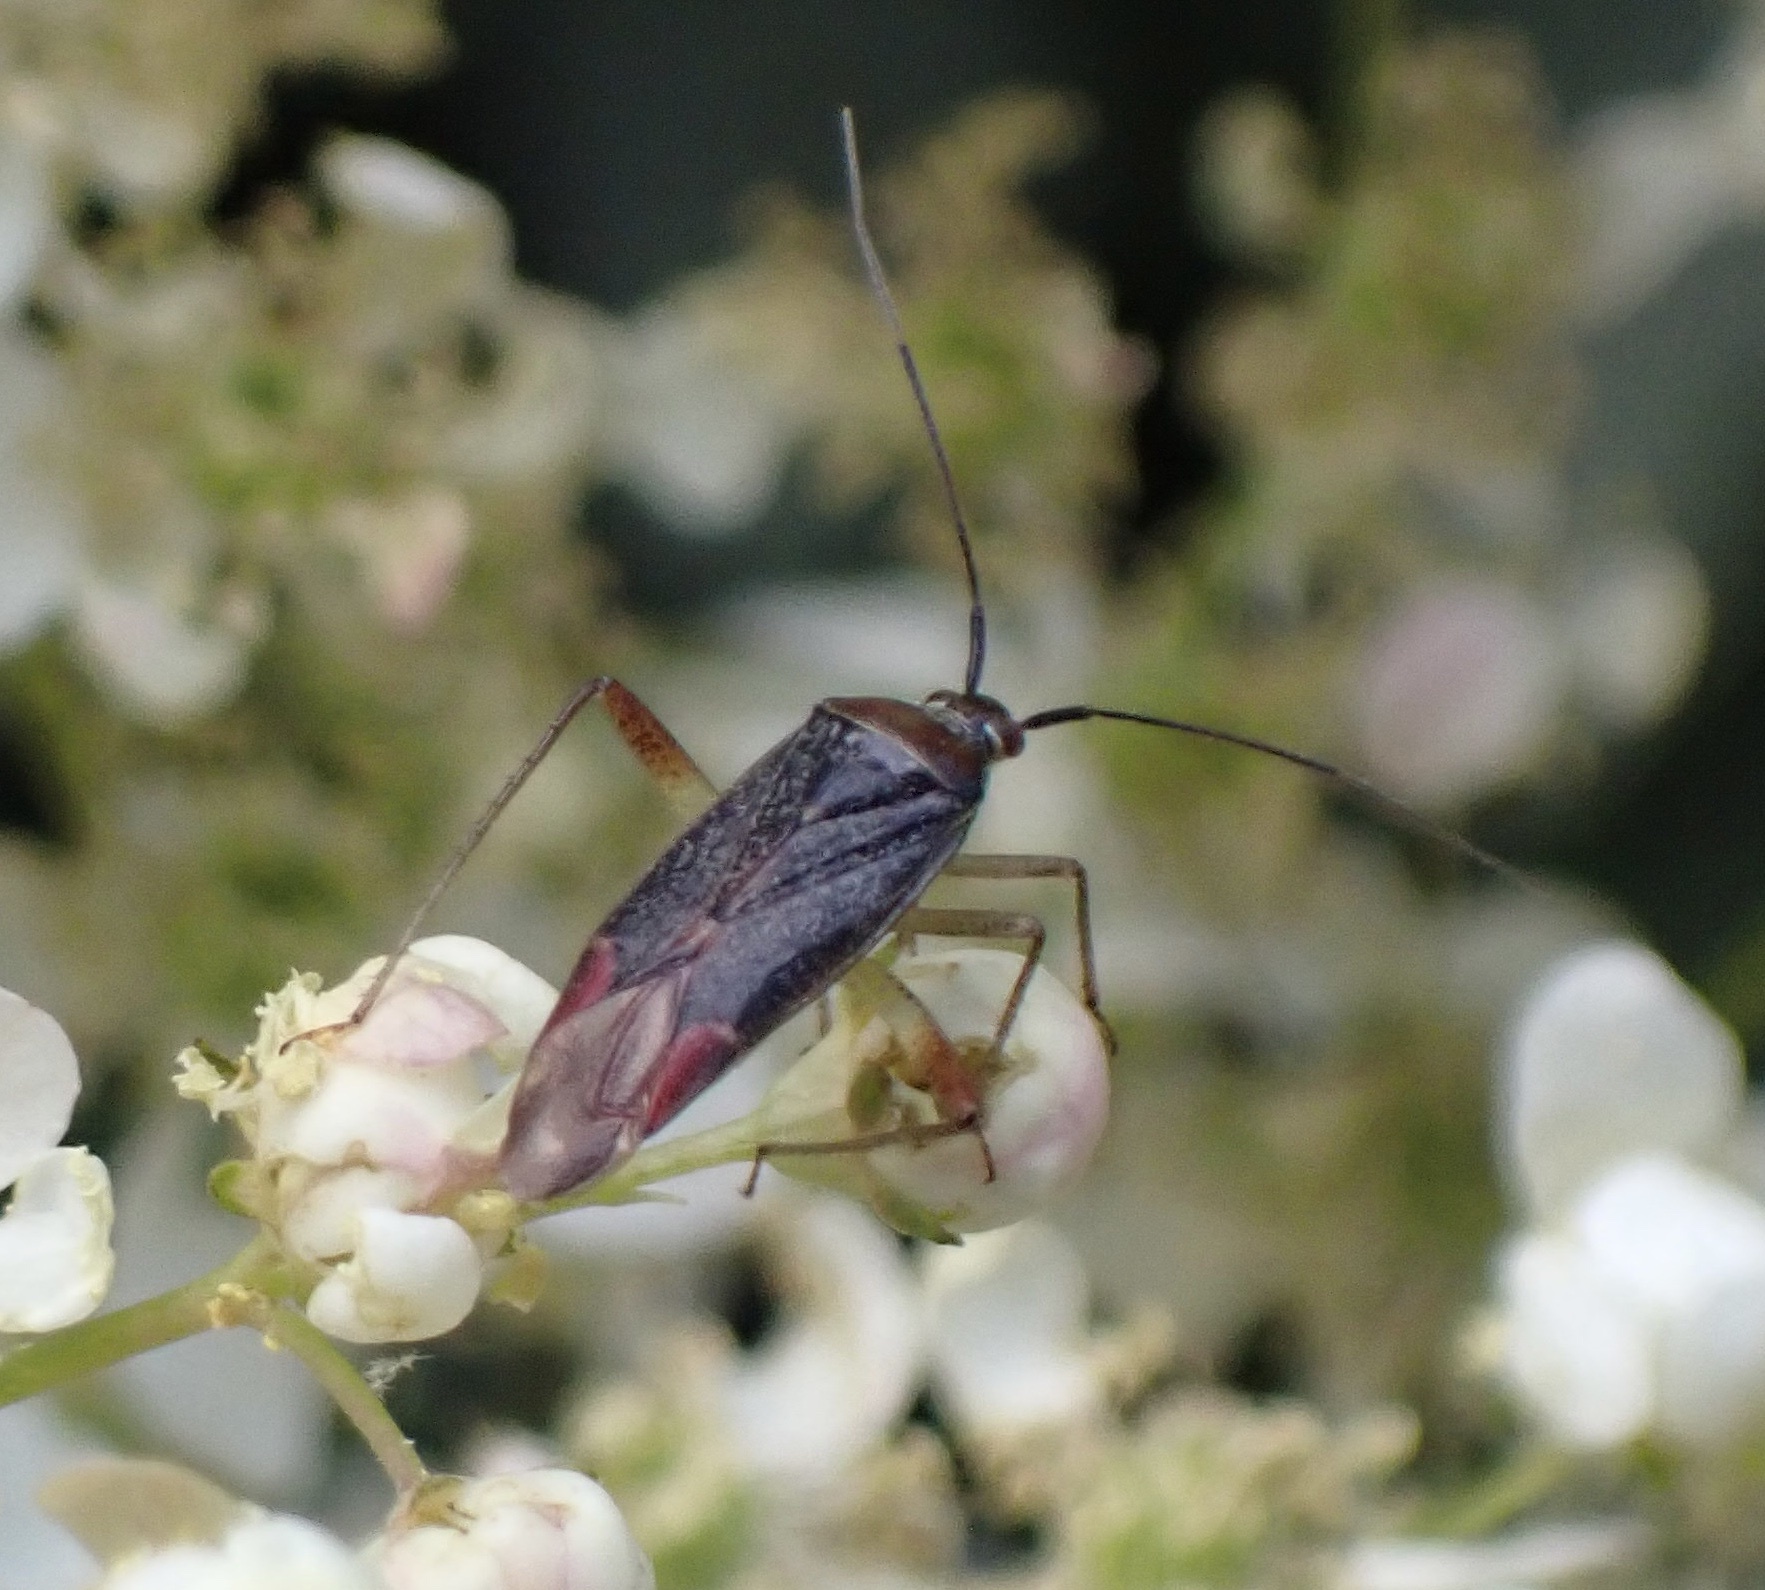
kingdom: Animalia
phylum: Arthropoda
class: Insecta
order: Hemiptera
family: Miridae
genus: Closterotomus
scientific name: Closterotomus trivialis
